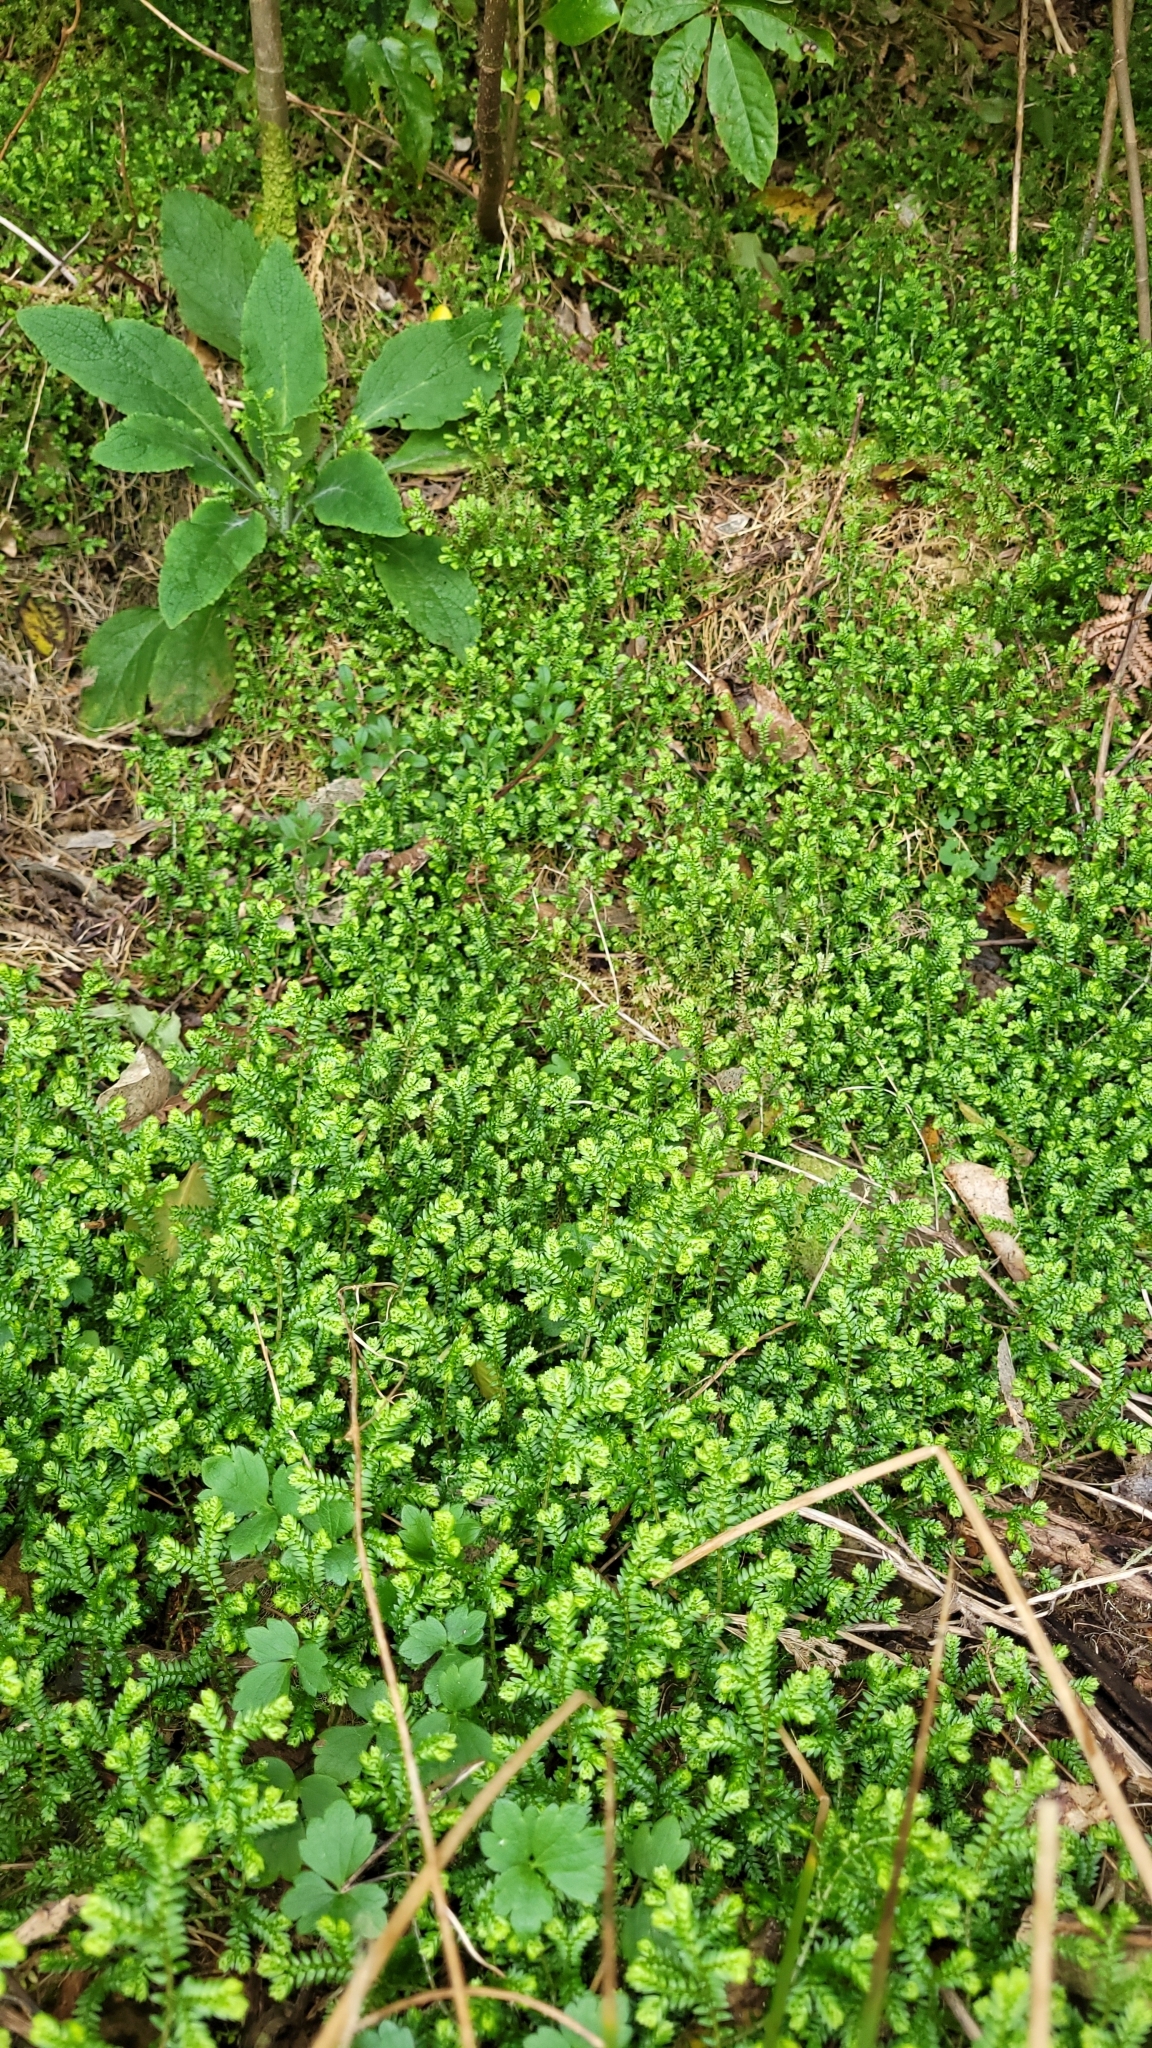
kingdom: Plantae
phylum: Tracheophyta
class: Lycopodiopsida
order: Selaginellales
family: Selaginellaceae
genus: Selaginella
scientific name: Selaginella kraussiana
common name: Krauss' spikemoss
